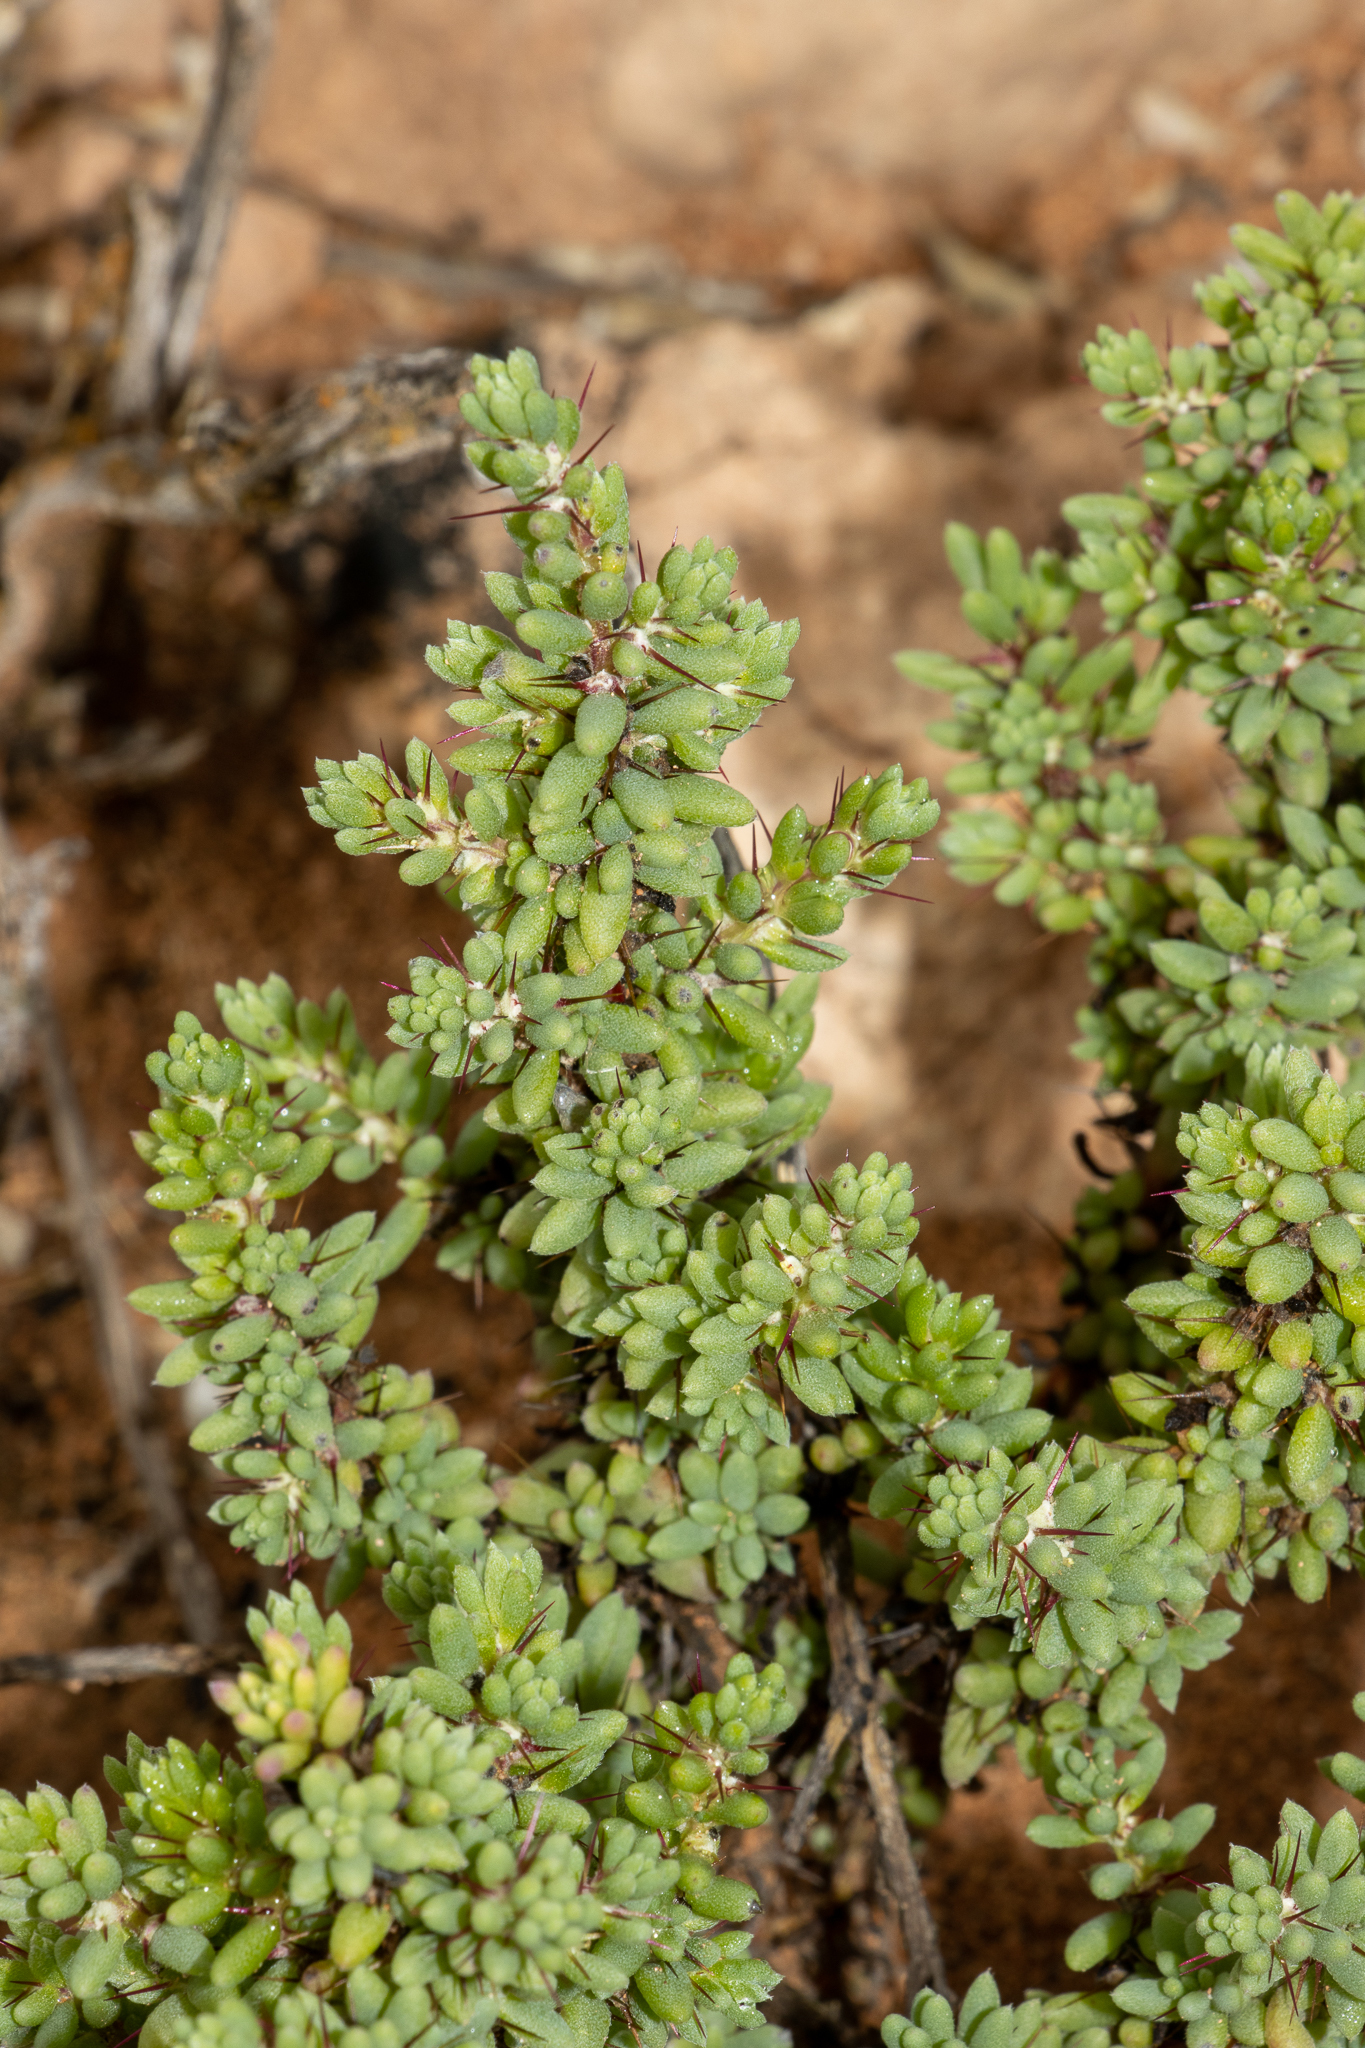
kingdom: Plantae
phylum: Tracheophyta
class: Magnoliopsida
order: Caryophyllales
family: Amaranthaceae
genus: Sclerolaena
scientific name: Sclerolaena obliquicuspis
